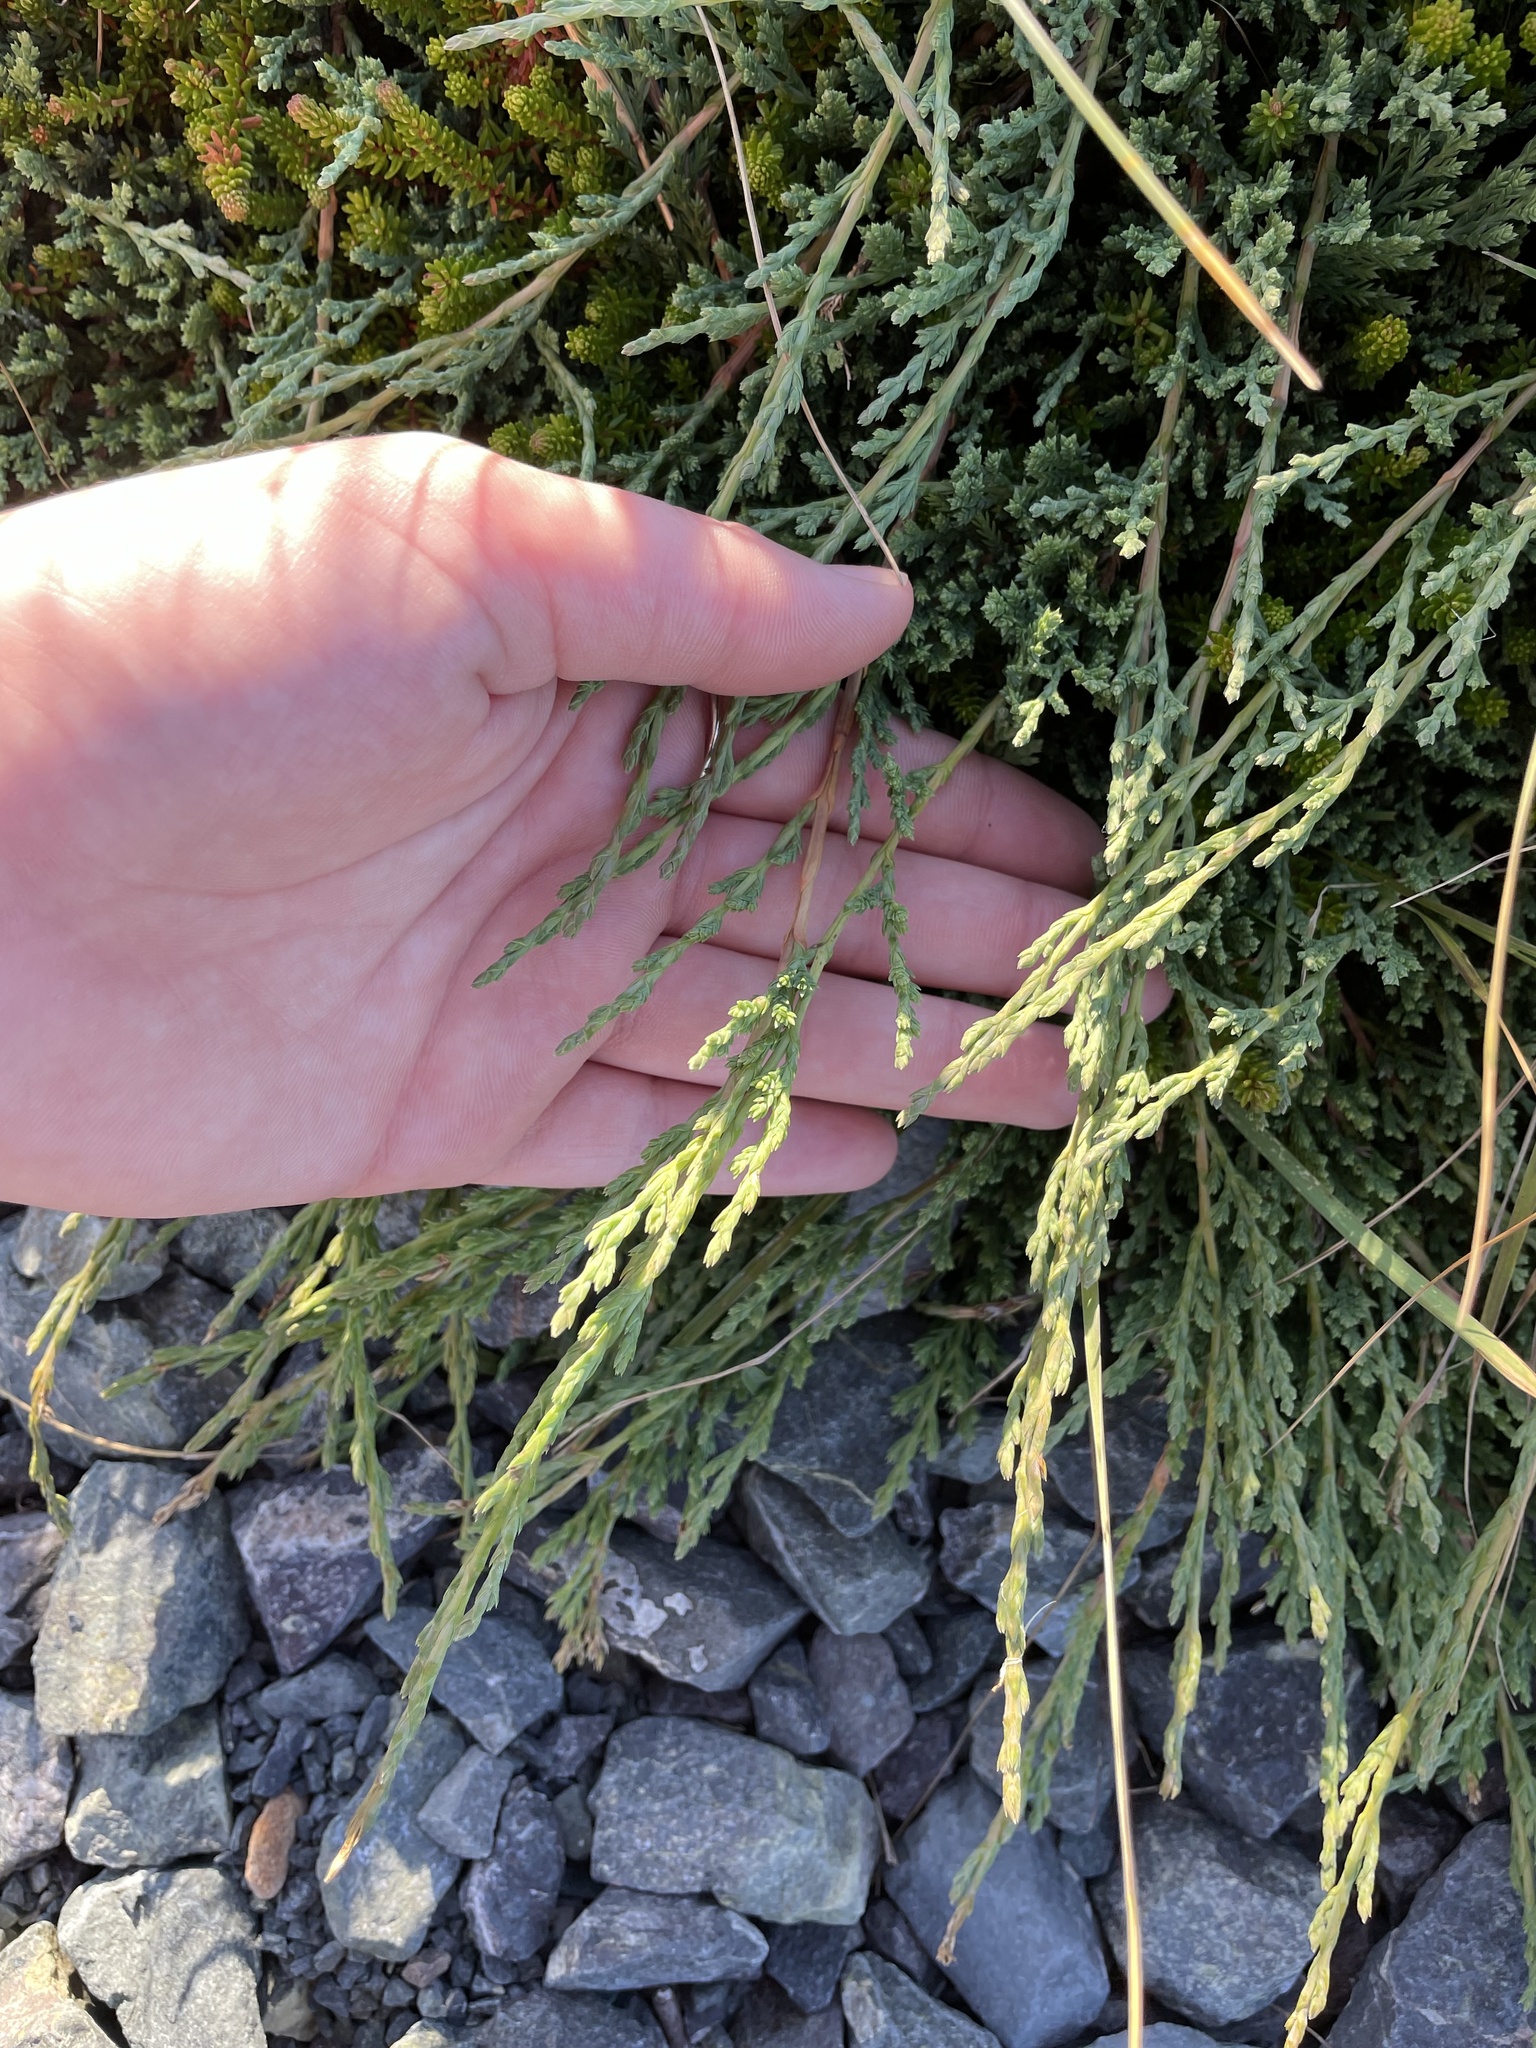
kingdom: Plantae
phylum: Tracheophyta
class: Pinopsida
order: Pinales
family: Cupressaceae
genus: Juniperus
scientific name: Juniperus horizontalis
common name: Creeping juniper
